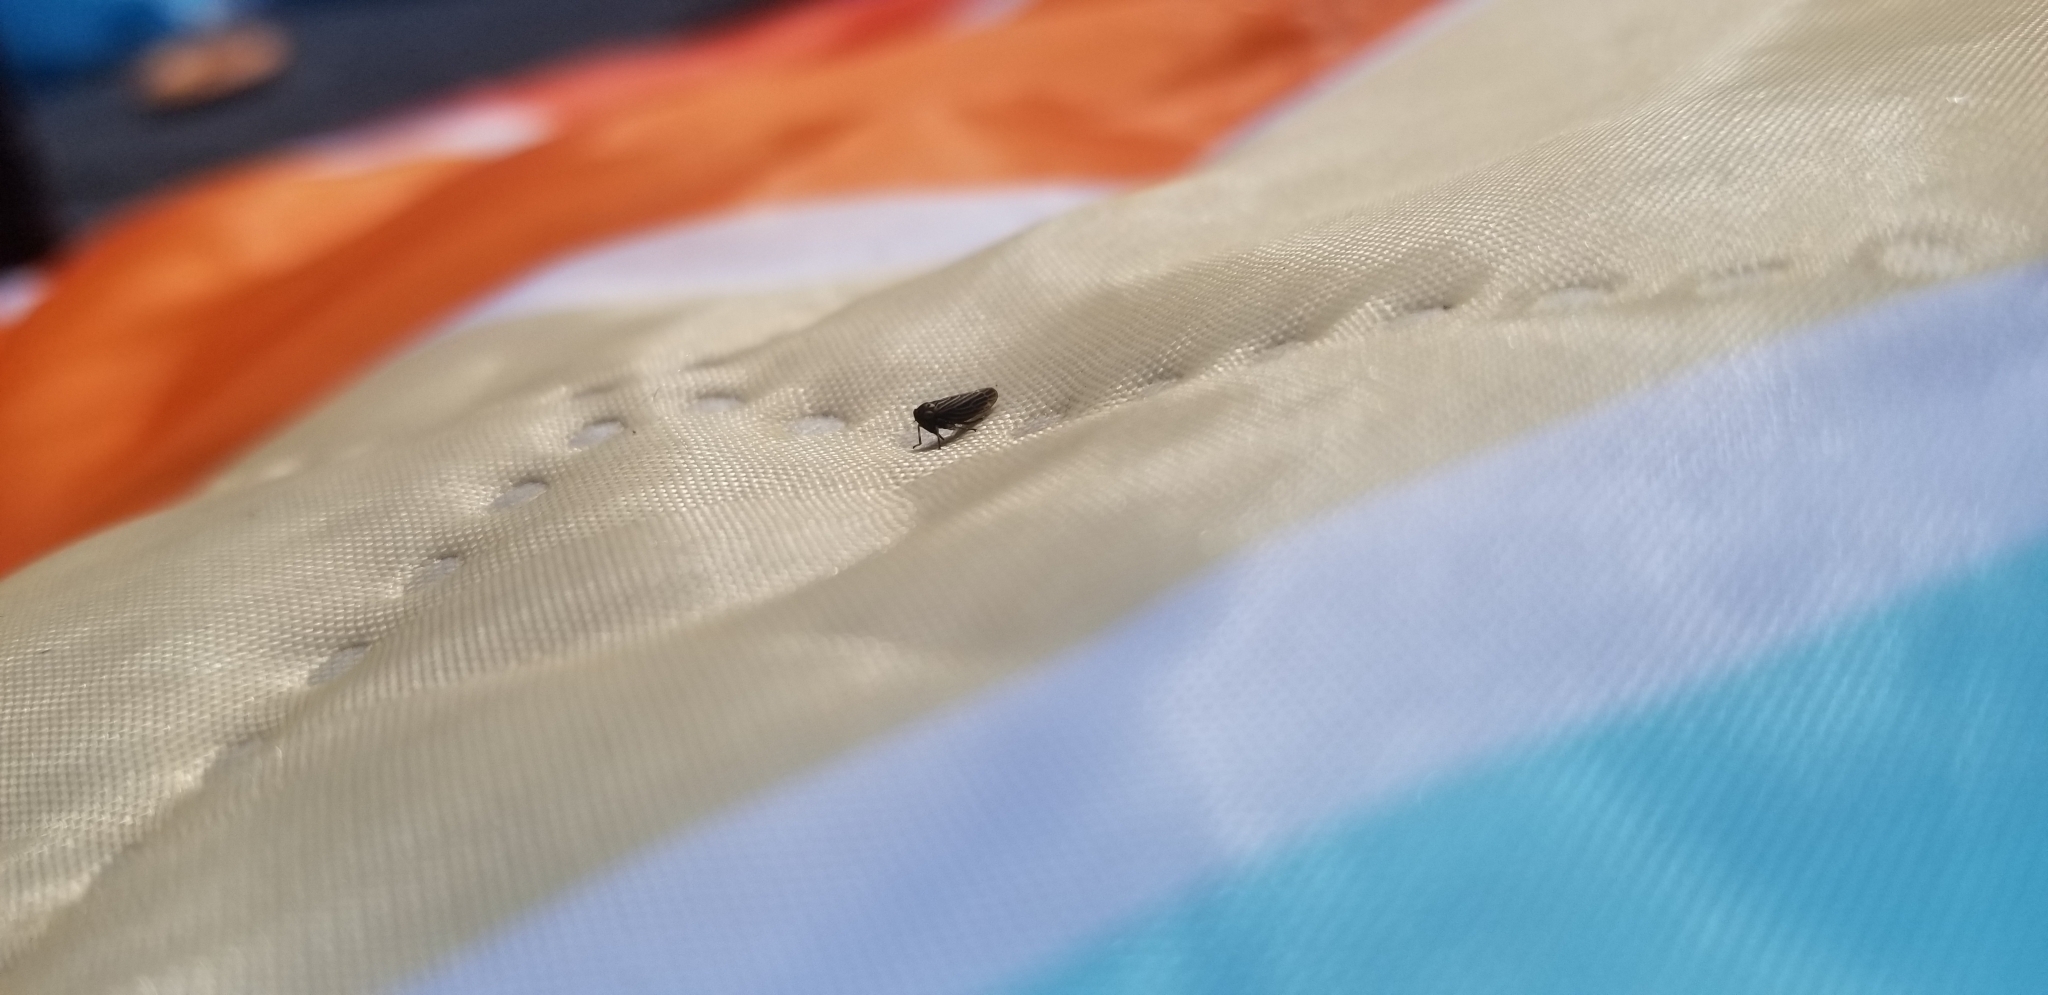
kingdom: Animalia
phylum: Arthropoda
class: Insecta
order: Hemiptera
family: Cicadellidae
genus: Agallia
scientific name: Agallia constricta
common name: The constricted leafhopper
